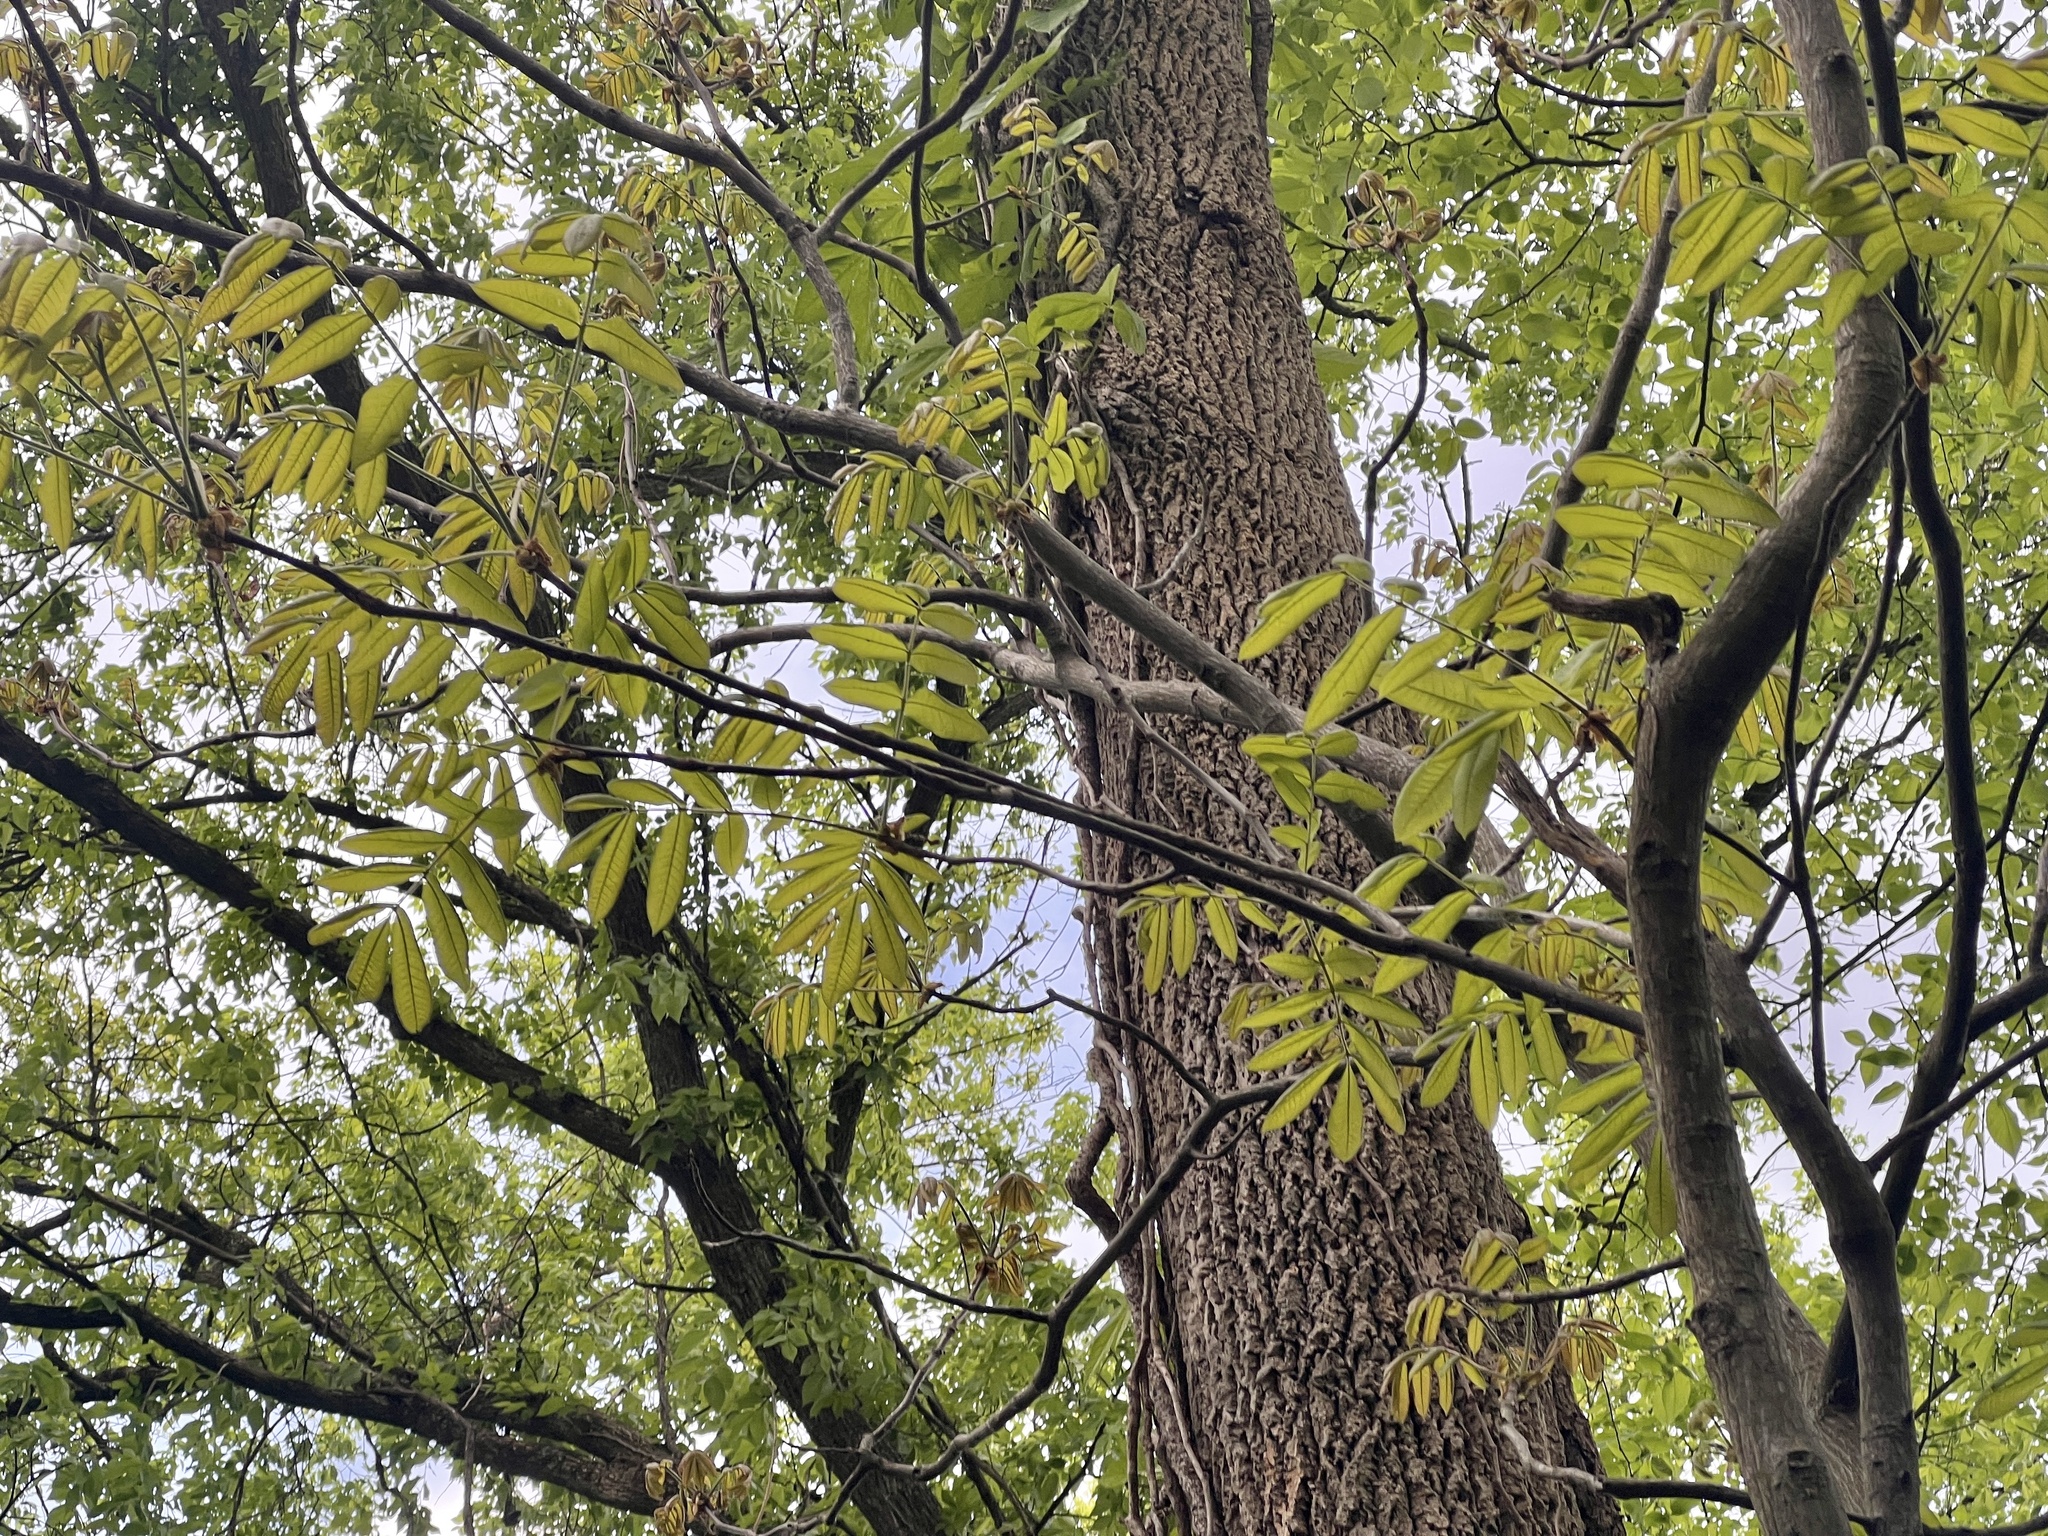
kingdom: Plantae
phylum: Tracheophyta
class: Magnoliopsida
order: Fagales
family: Juglandaceae
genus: Juglans
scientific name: Juglans nigra
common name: Black walnut
